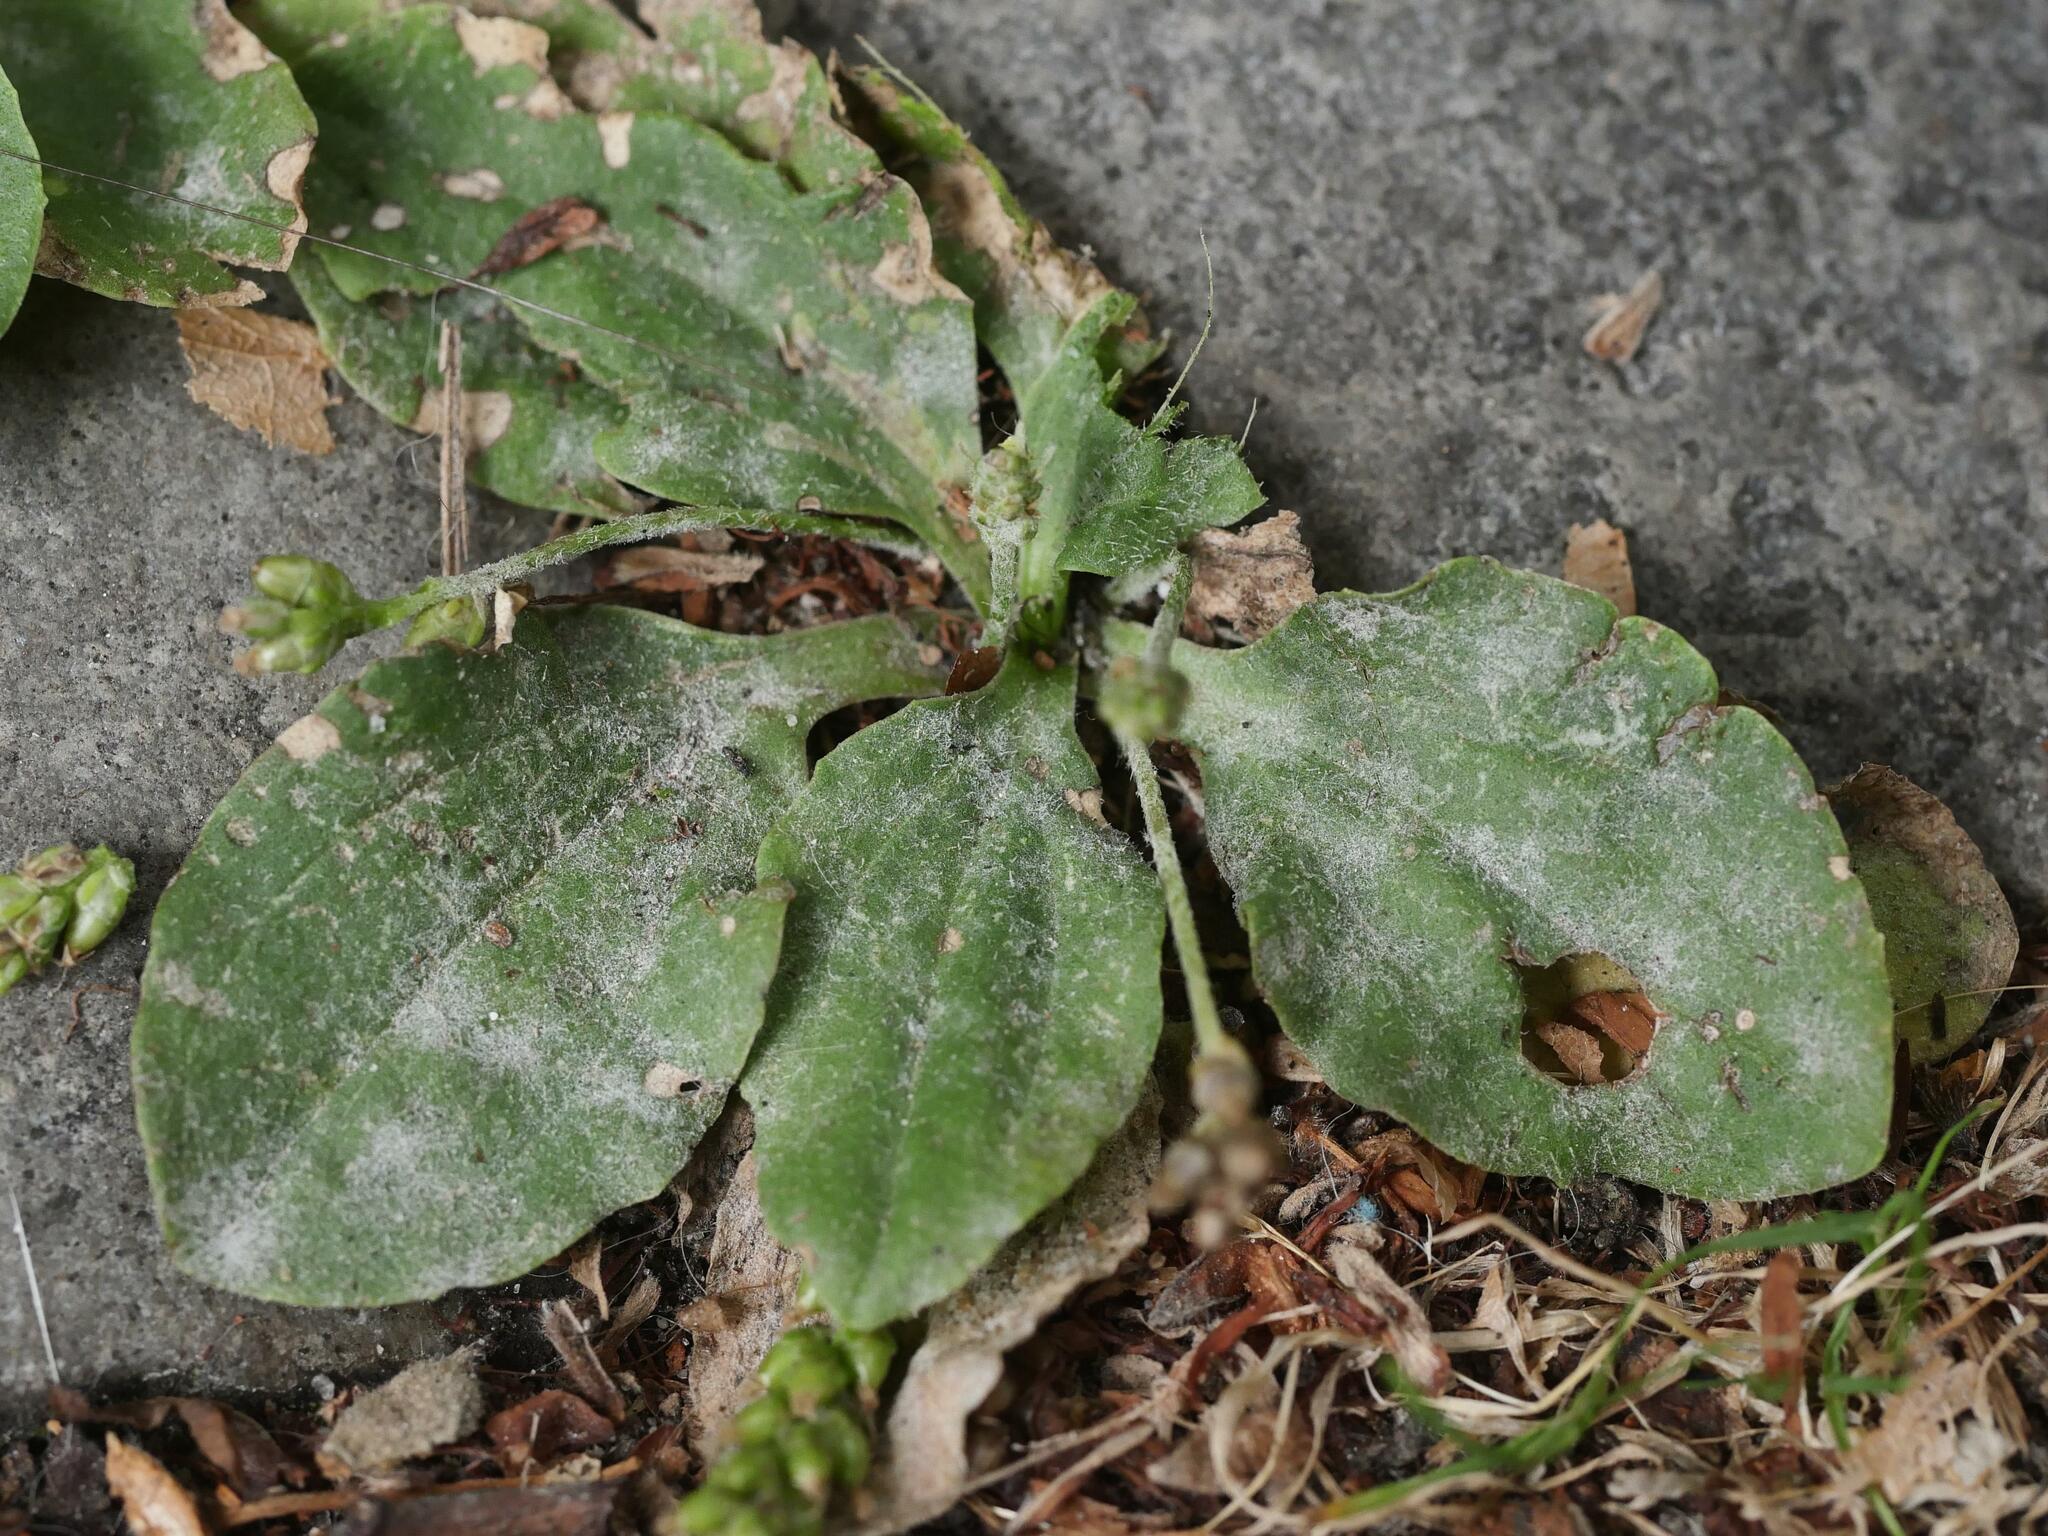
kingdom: Plantae
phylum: Tracheophyta
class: Magnoliopsida
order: Lamiales
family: Plantaginaceae
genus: Plantago
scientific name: Plantago major
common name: Common plantain
